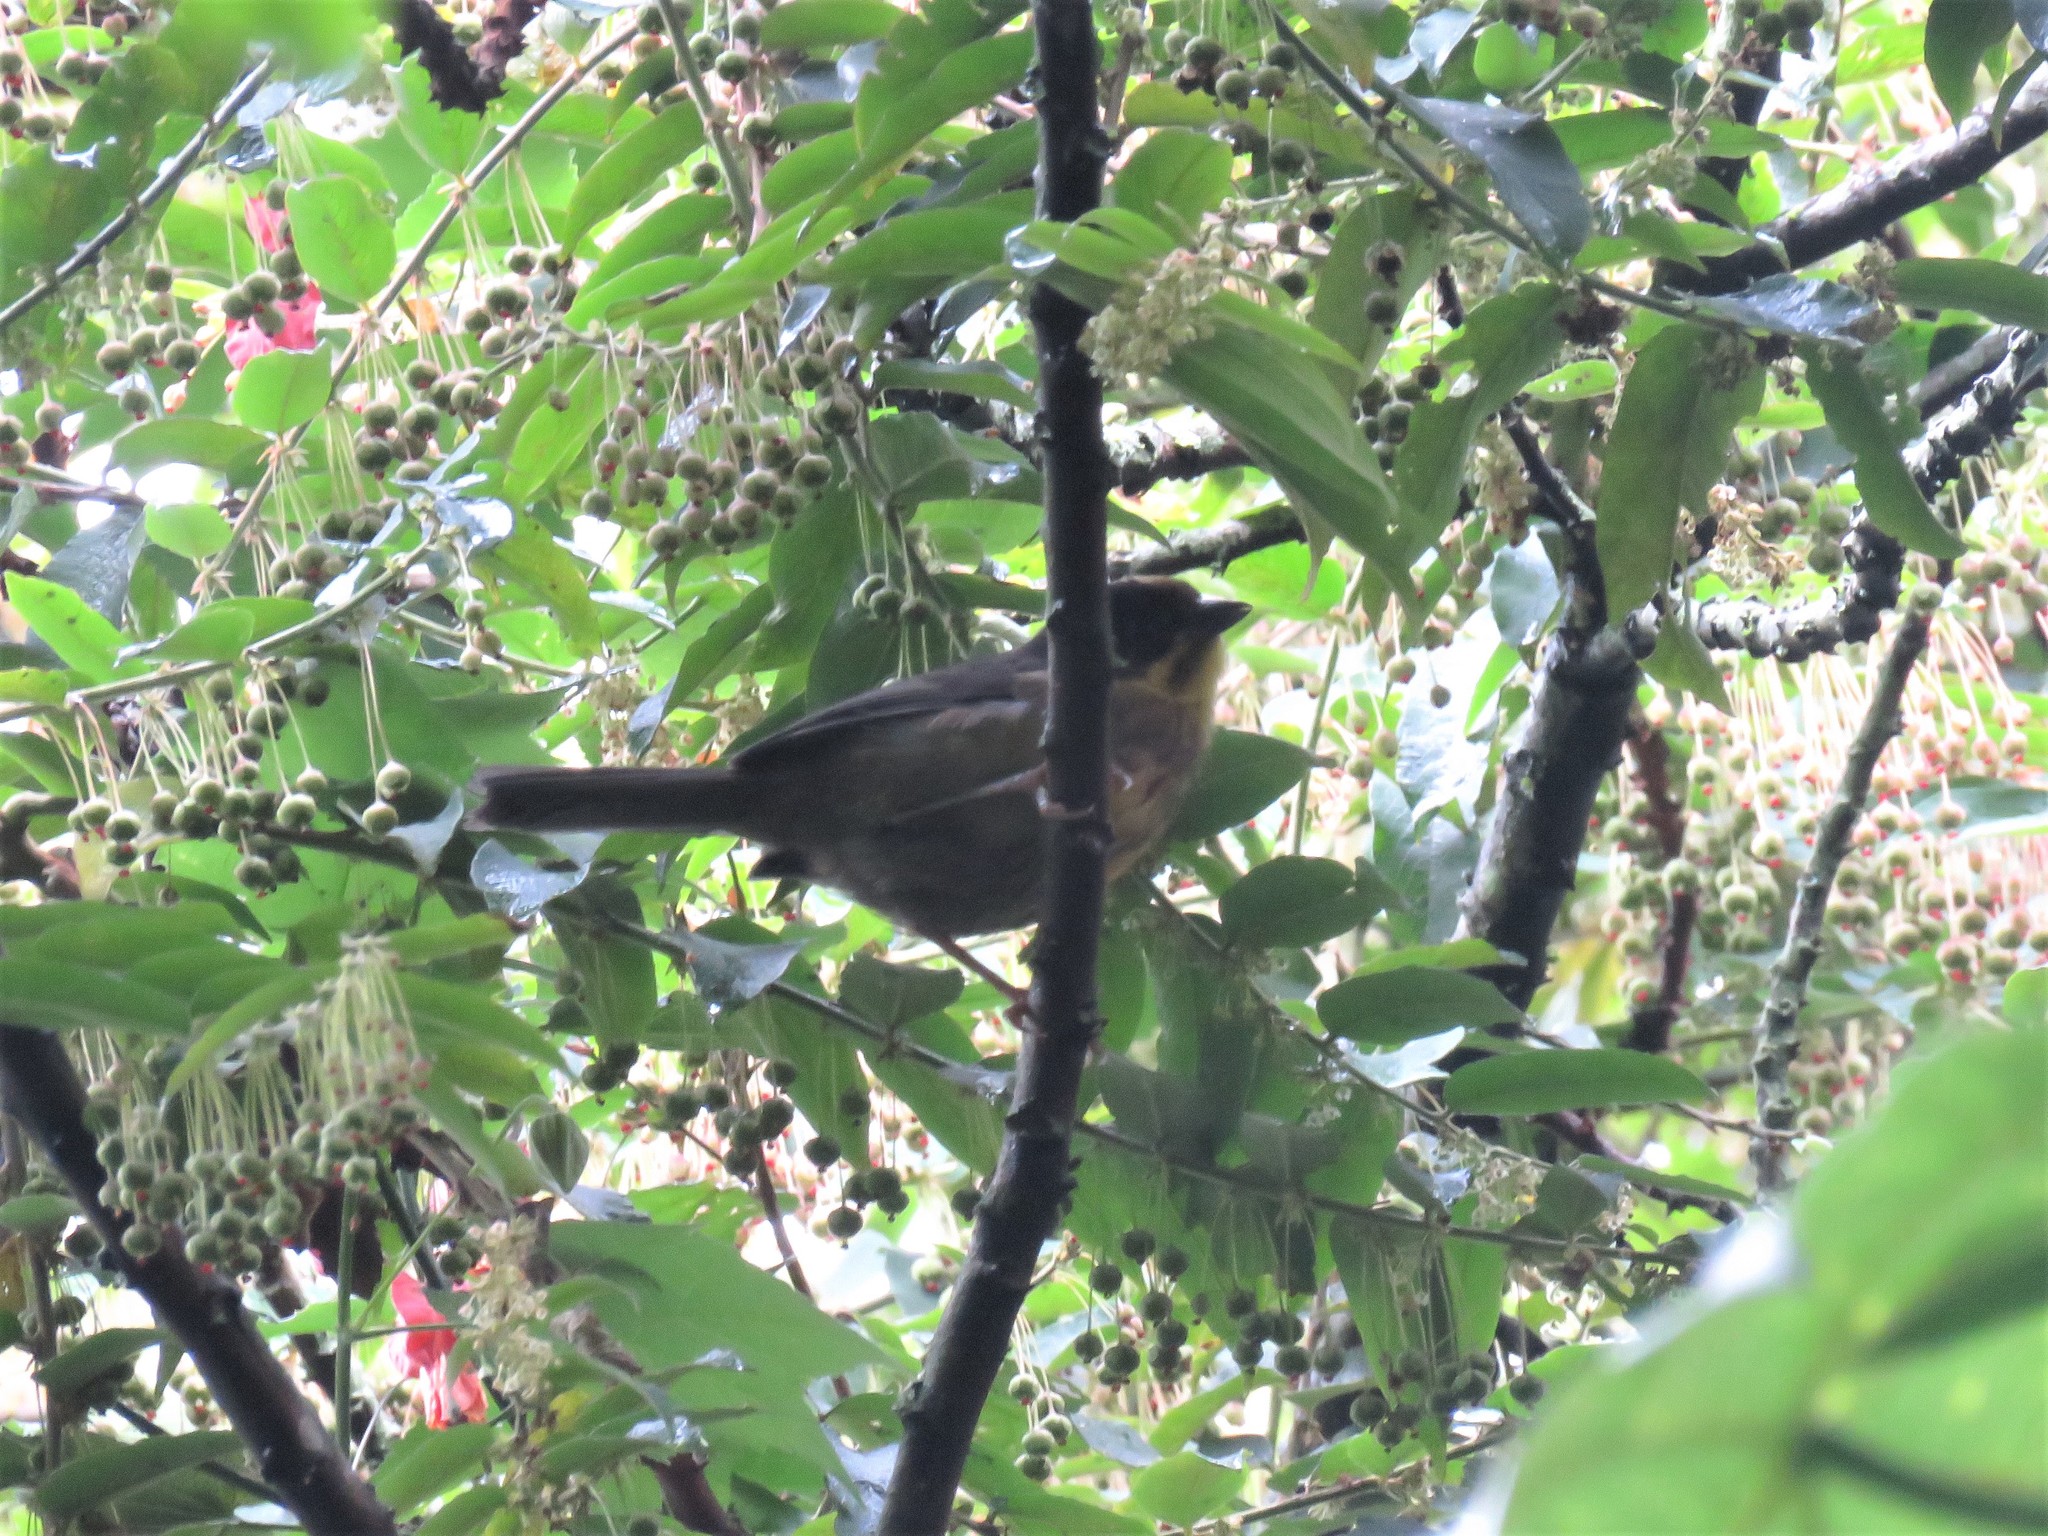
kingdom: Animalia
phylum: Chordata
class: Aves
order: Passeriformes
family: Passerellidae
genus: Atlapetes
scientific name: Atlapetes pallidinucha
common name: Pale-naped brushfinch
